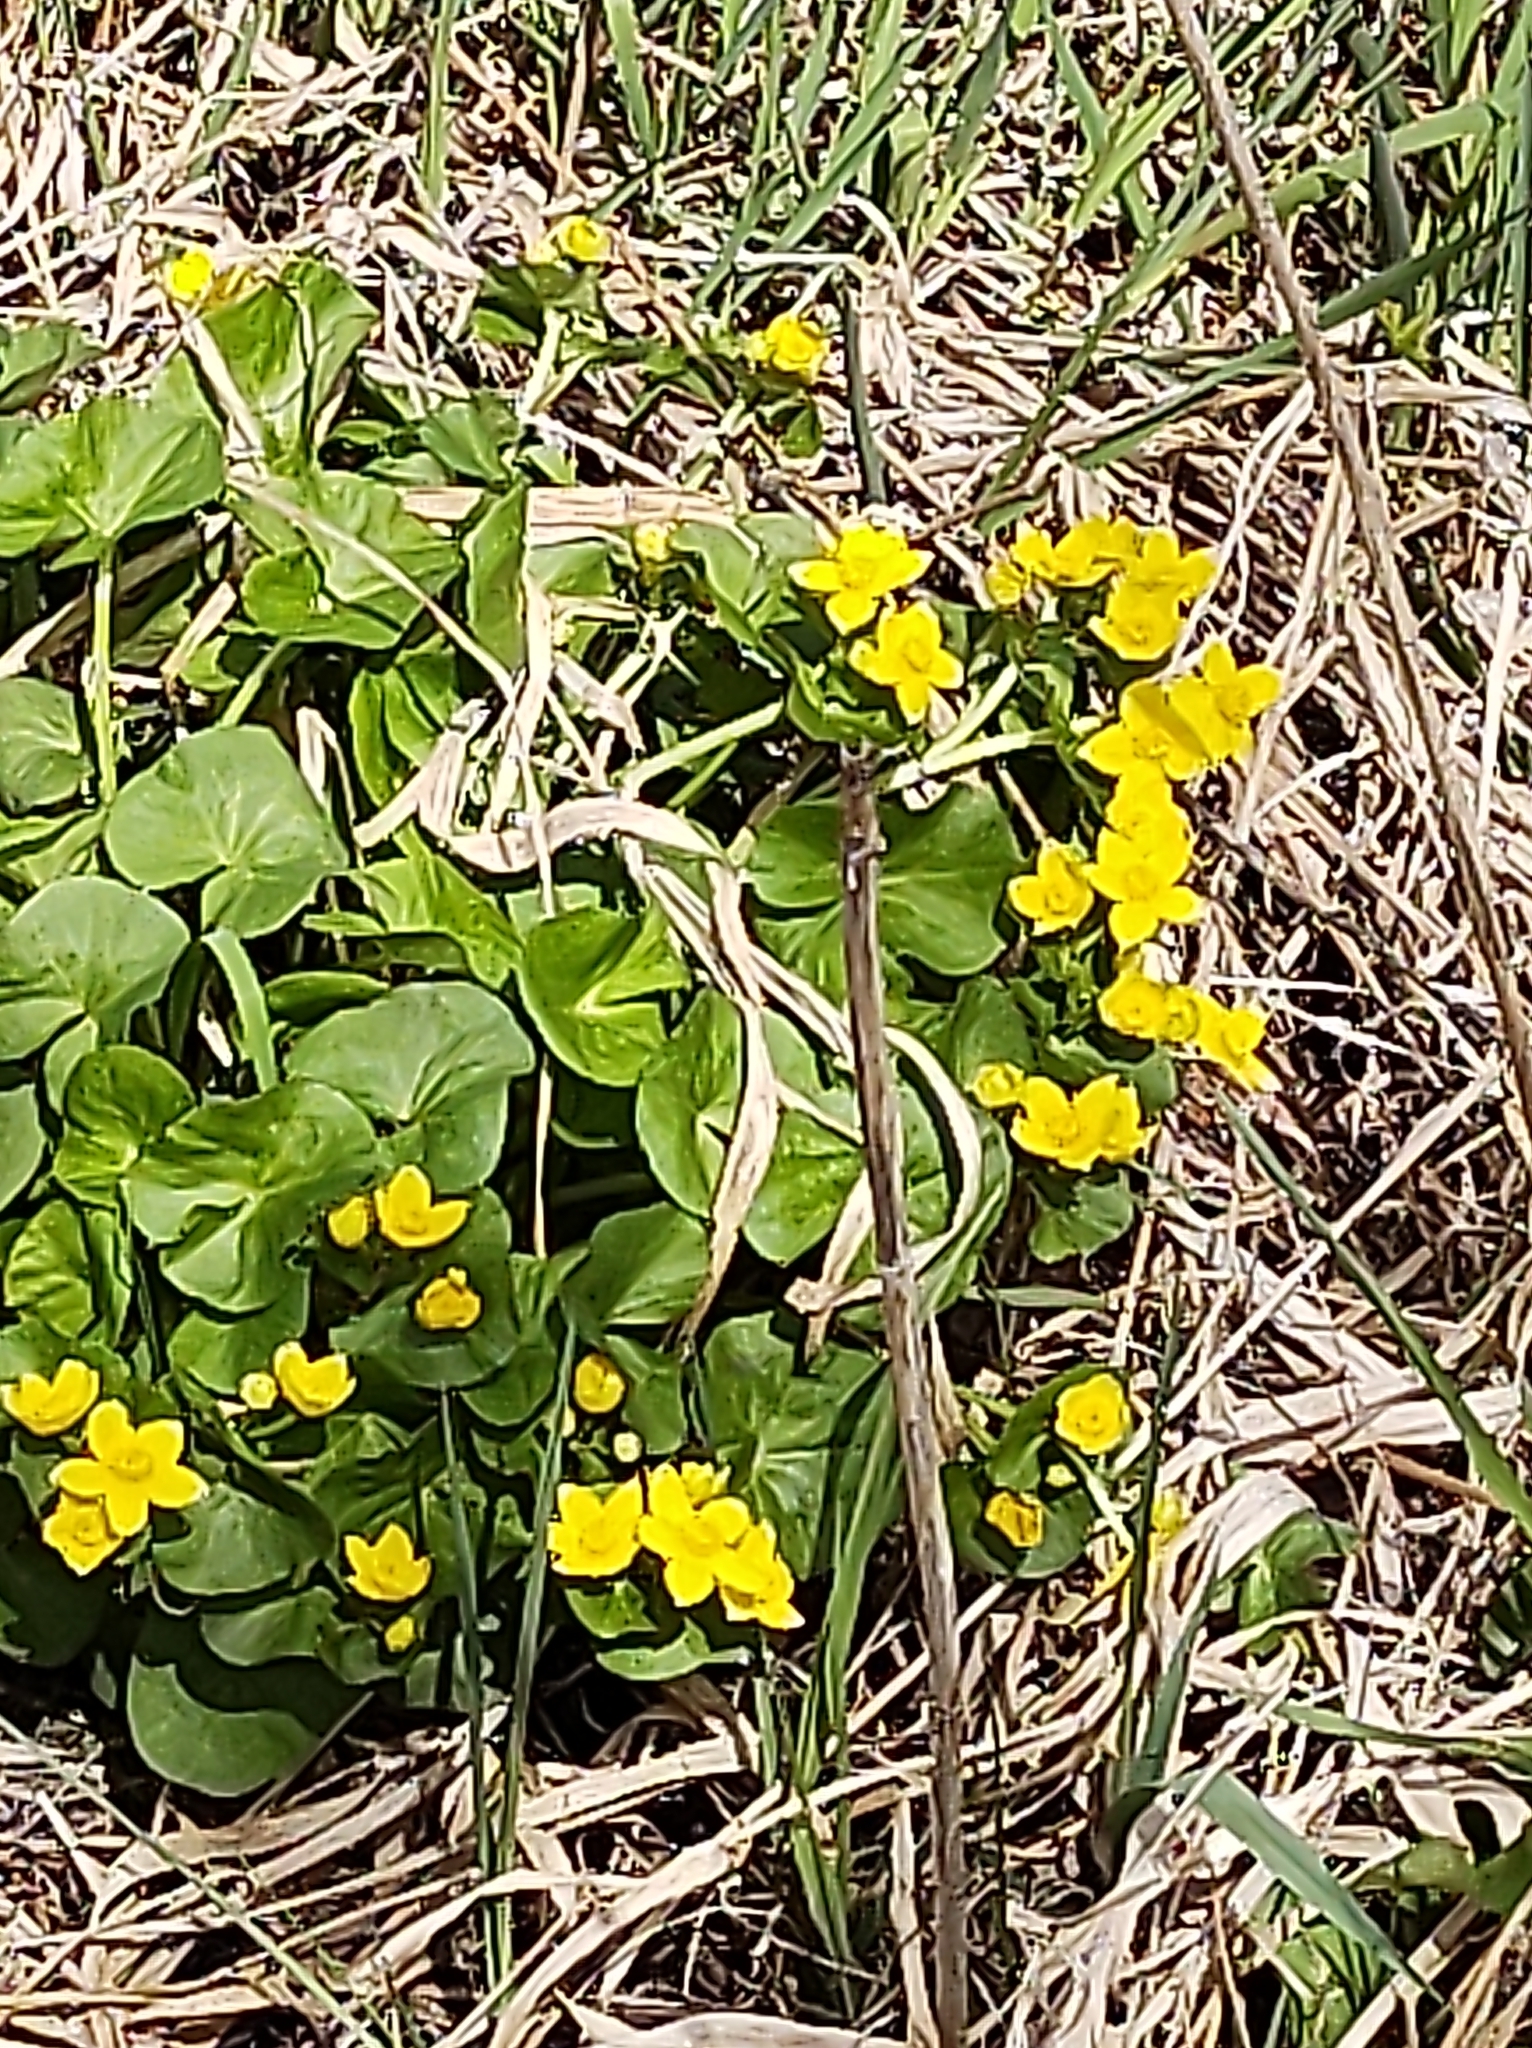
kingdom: Plantae
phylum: Tracheophyta
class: Magnoliopsida
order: Ranunculales
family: Ranunculaceae
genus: Caltha
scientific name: Caltha palustris
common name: Marsh marigold
